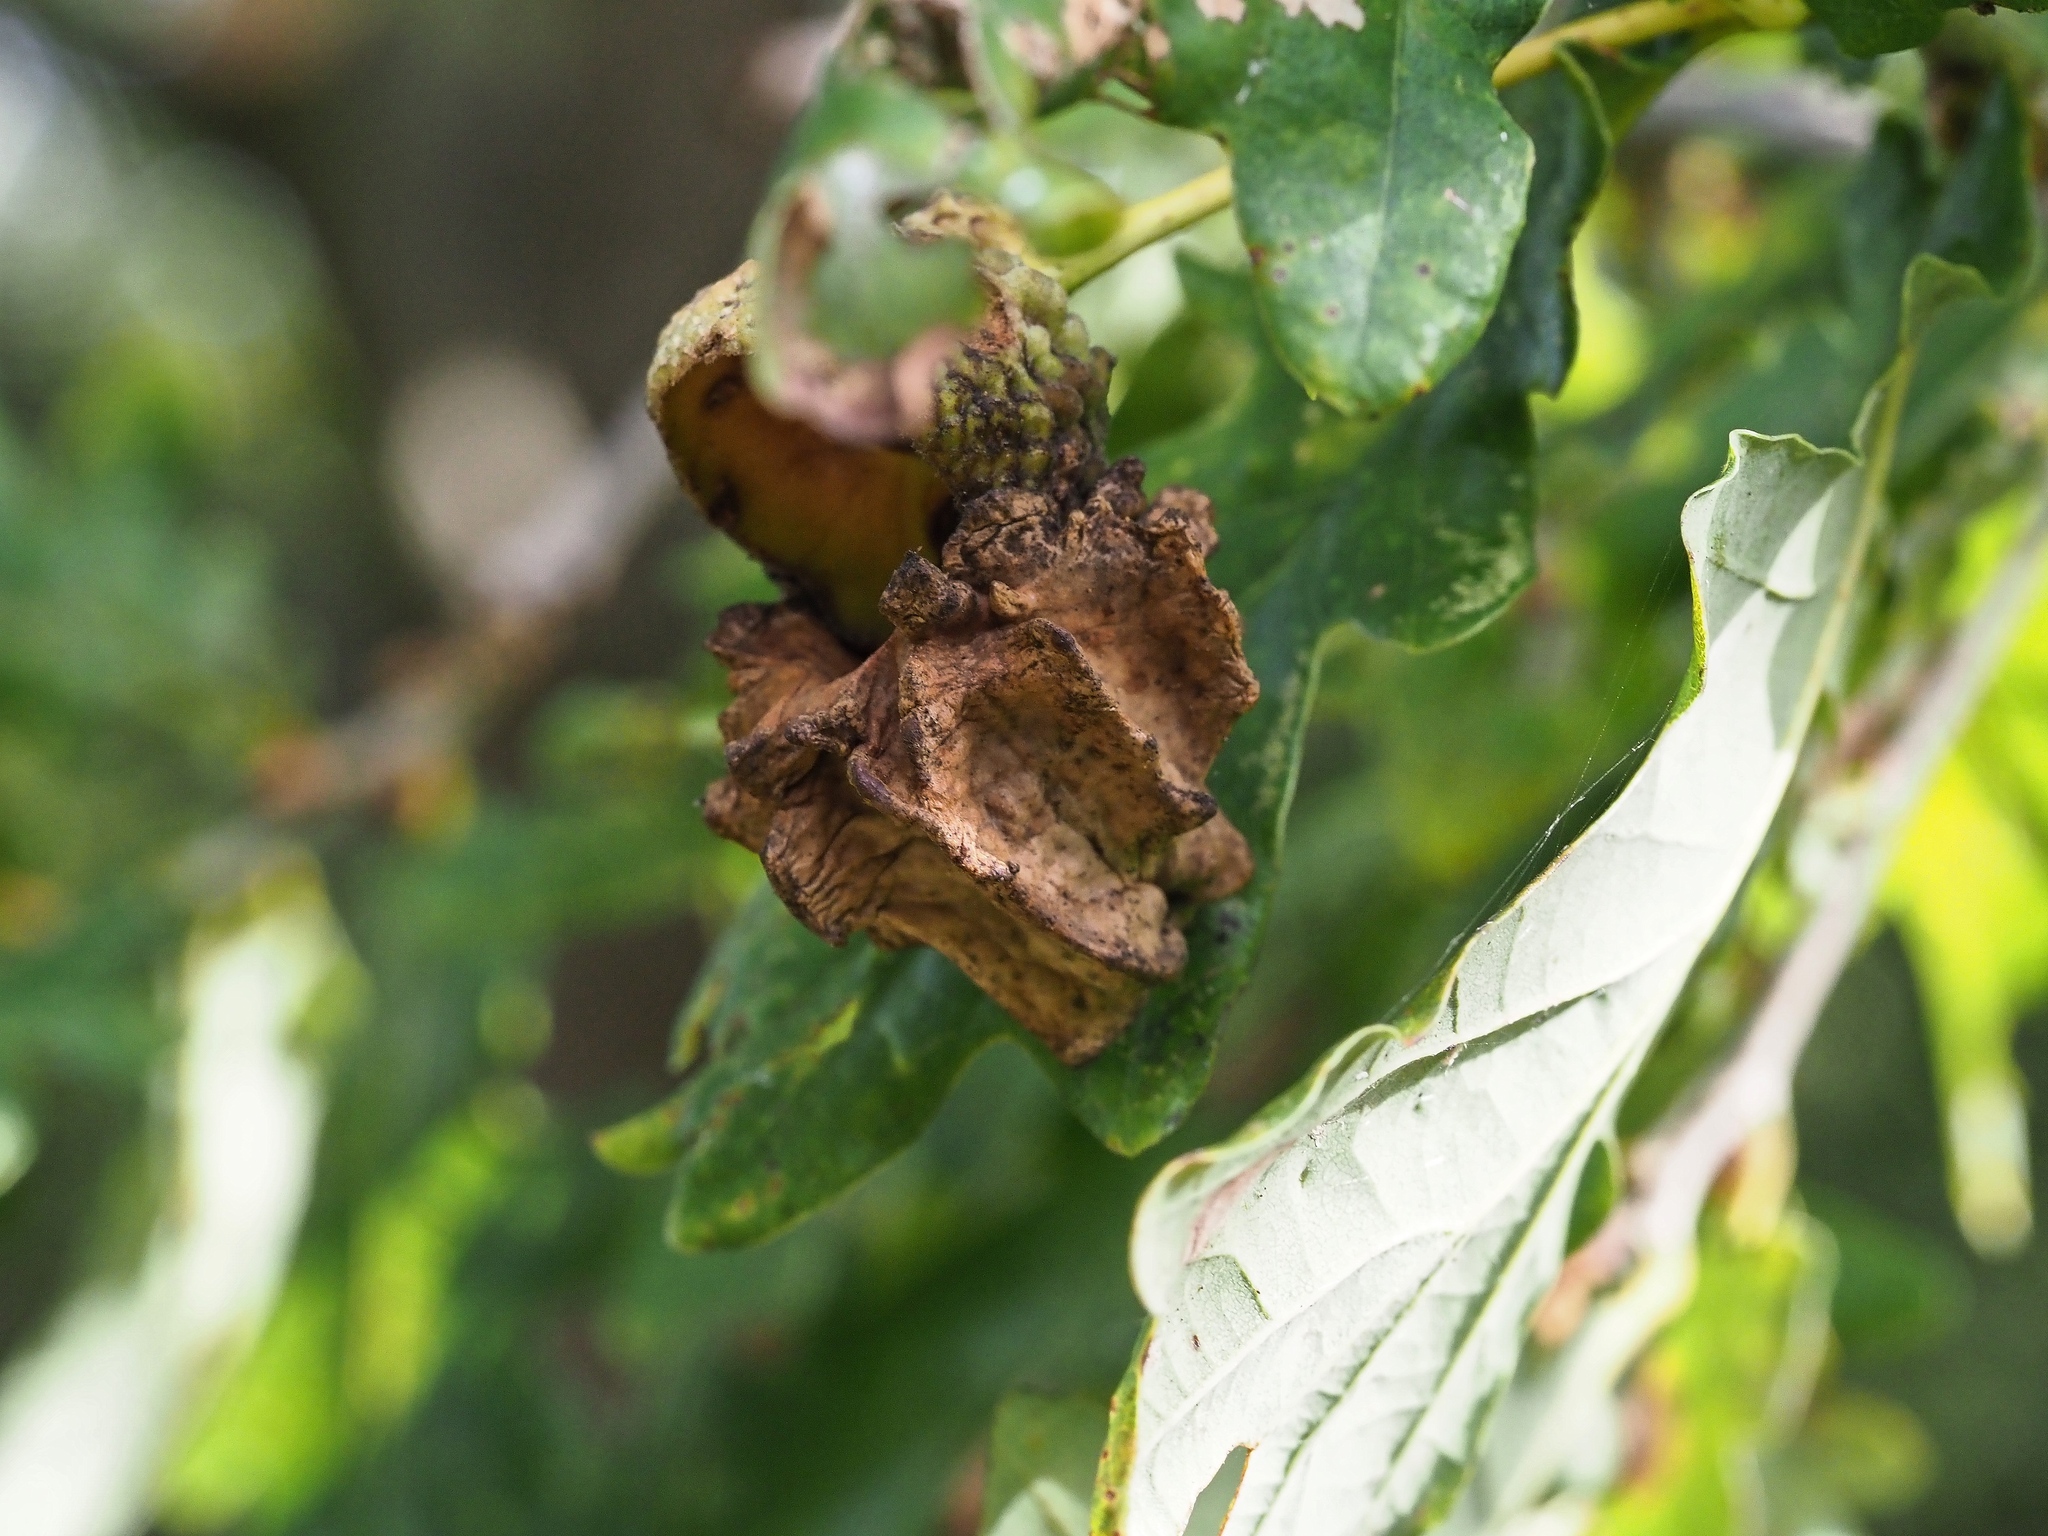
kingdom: Animalia
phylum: Arthropoda
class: Insecta
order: Hymenoptera
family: Cynipidae
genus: Andricus
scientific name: Andricus quercuscalicis
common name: Knopper gall
